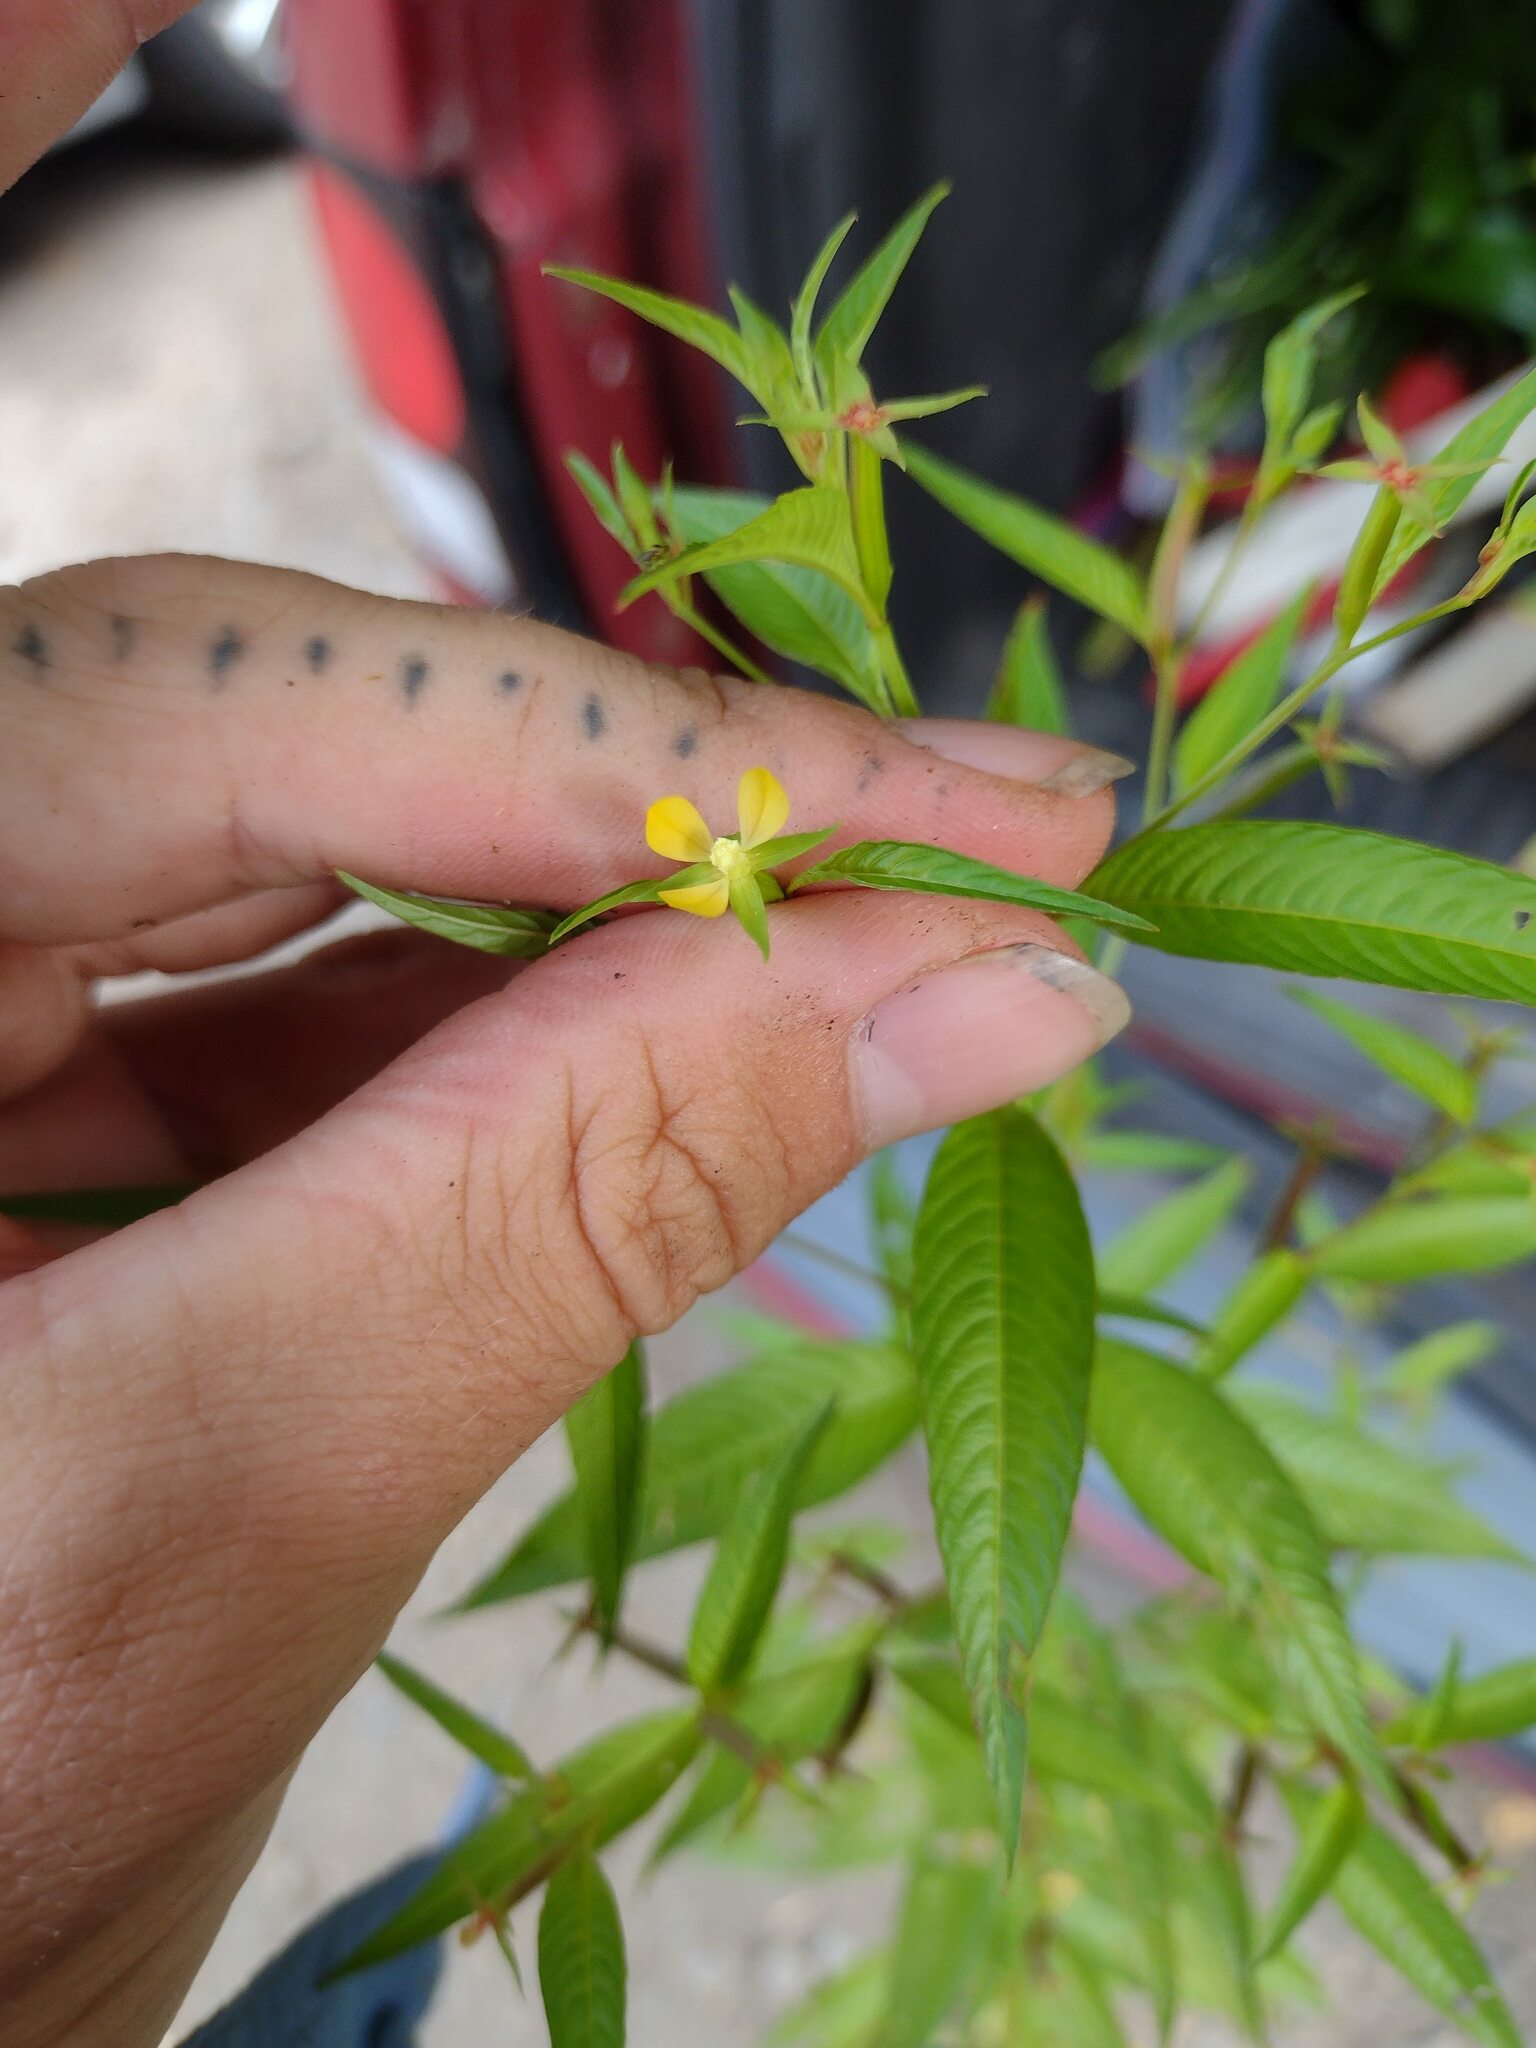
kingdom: Plantae
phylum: Tracheophyta
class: Magnoliopsida
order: Myrtales
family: Onagraceae
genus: Ludwigia
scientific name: Ludwigia erecta
